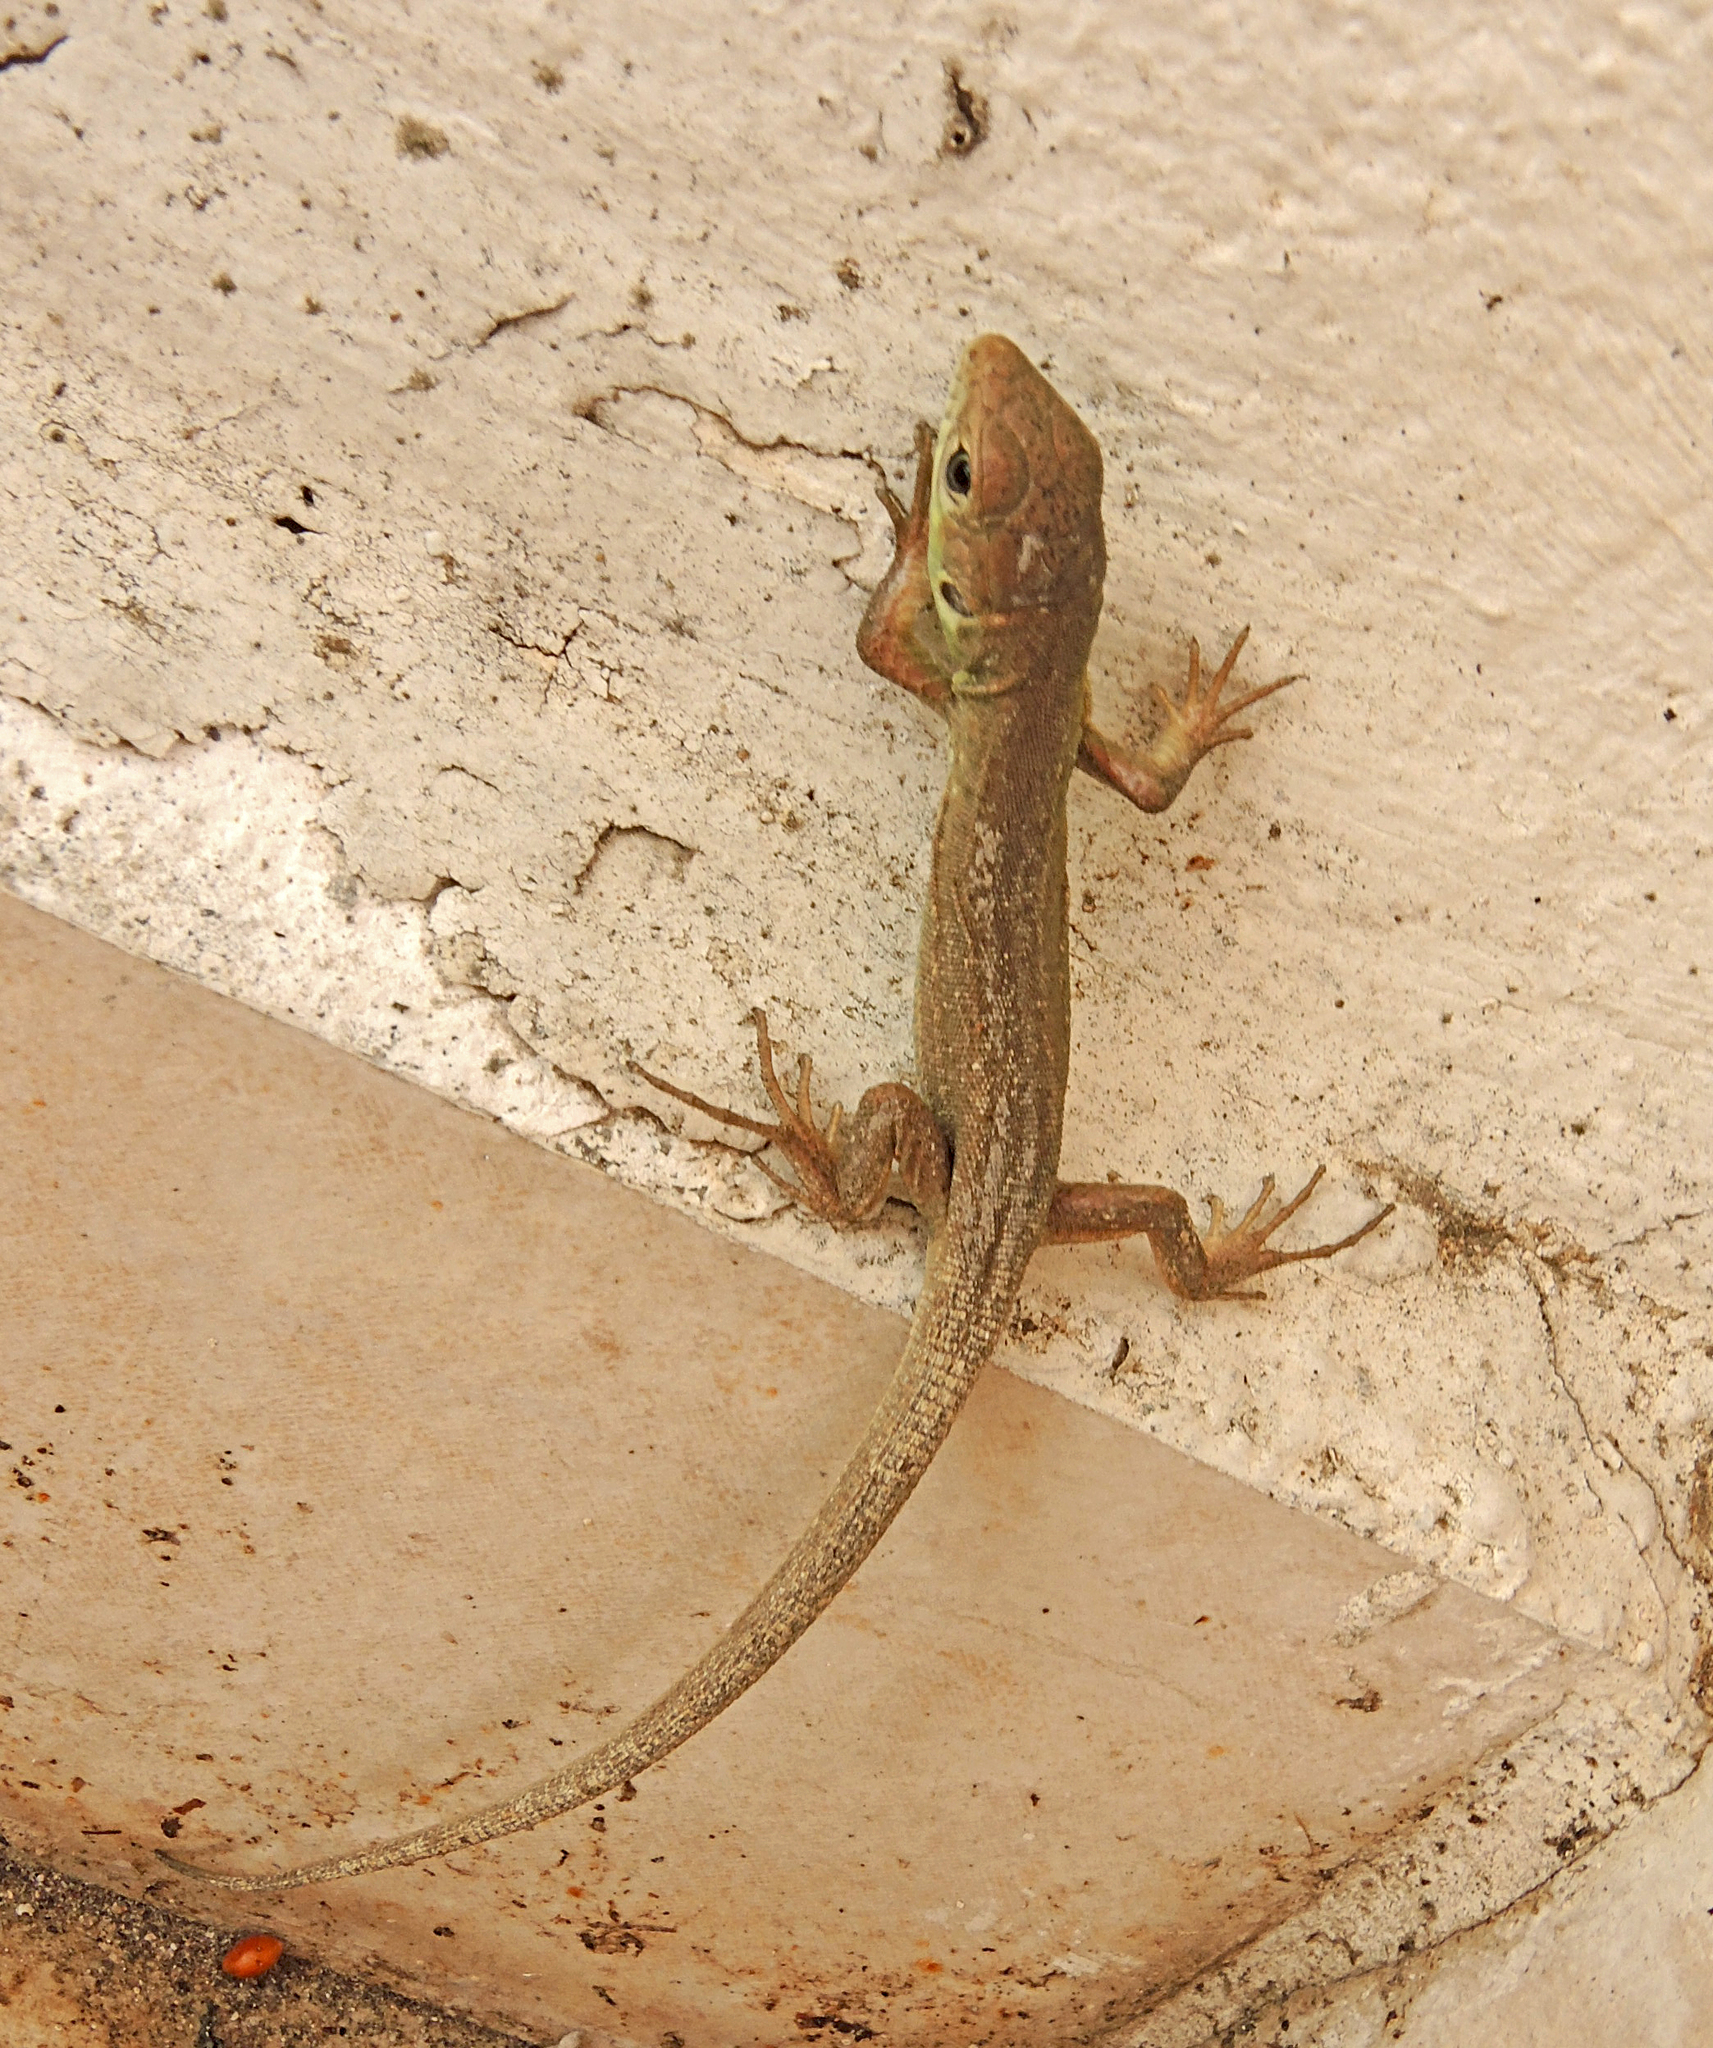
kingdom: Animalia
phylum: Chordata
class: Squamata
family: Lacertidae
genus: Lacerta
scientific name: Lacerta viridis
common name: European green lizard
